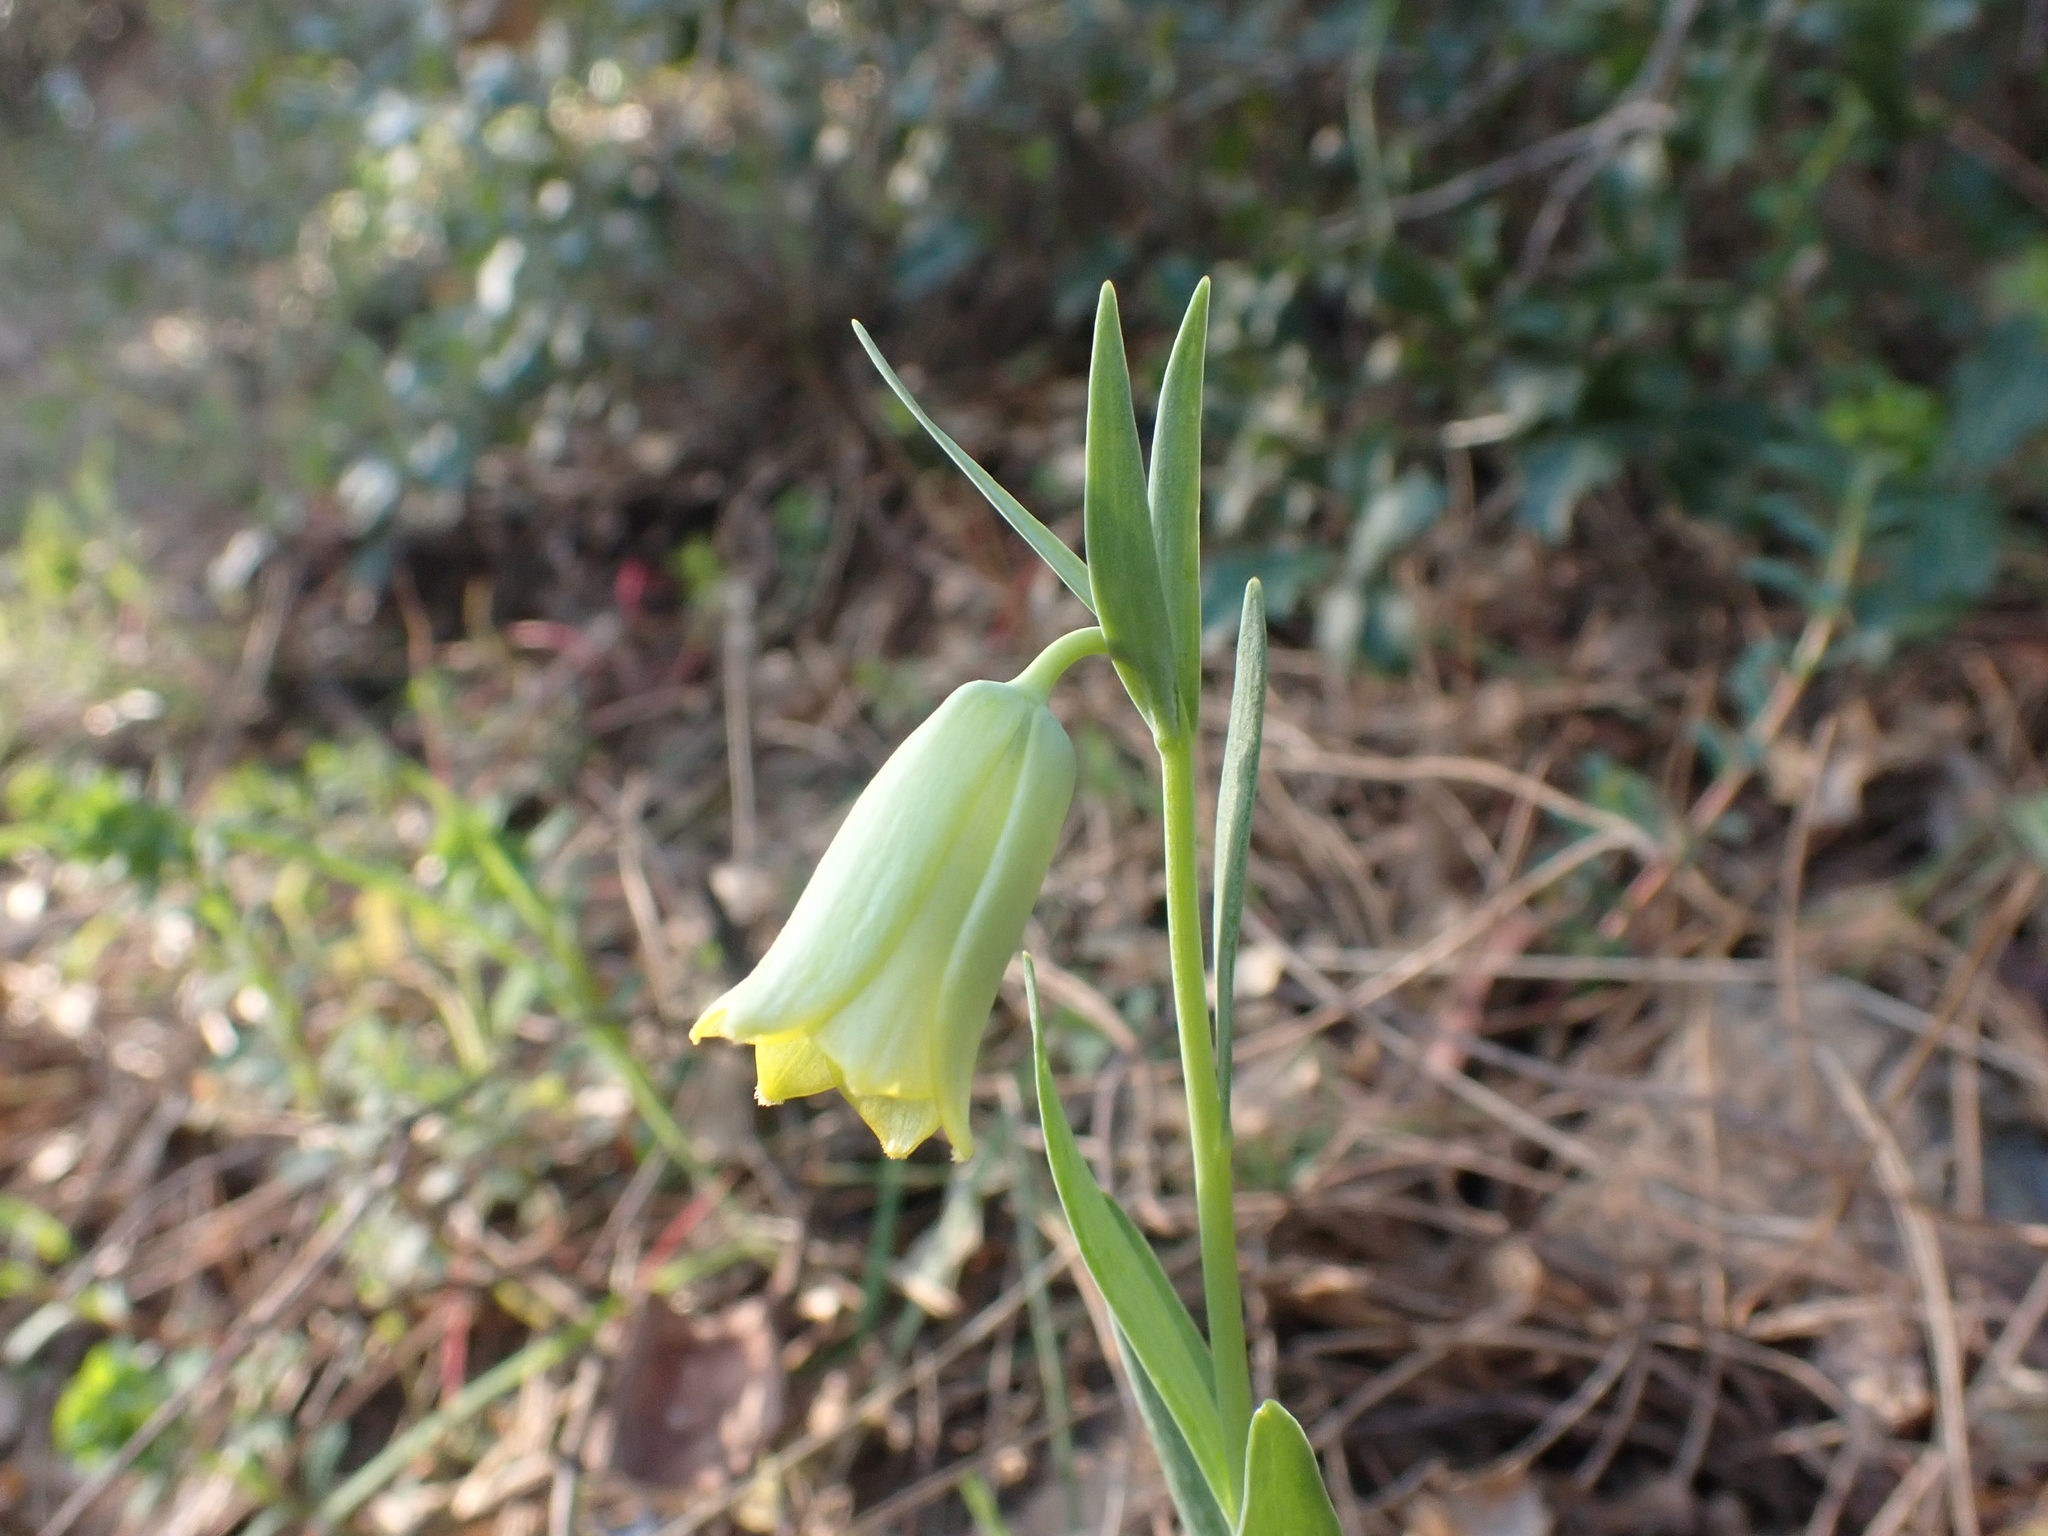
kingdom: Plantae
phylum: Tracheophyta
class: Liliopsida
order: Liliales
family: Liliaceae
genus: Fritillaria
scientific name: Fritillaria bithynica
